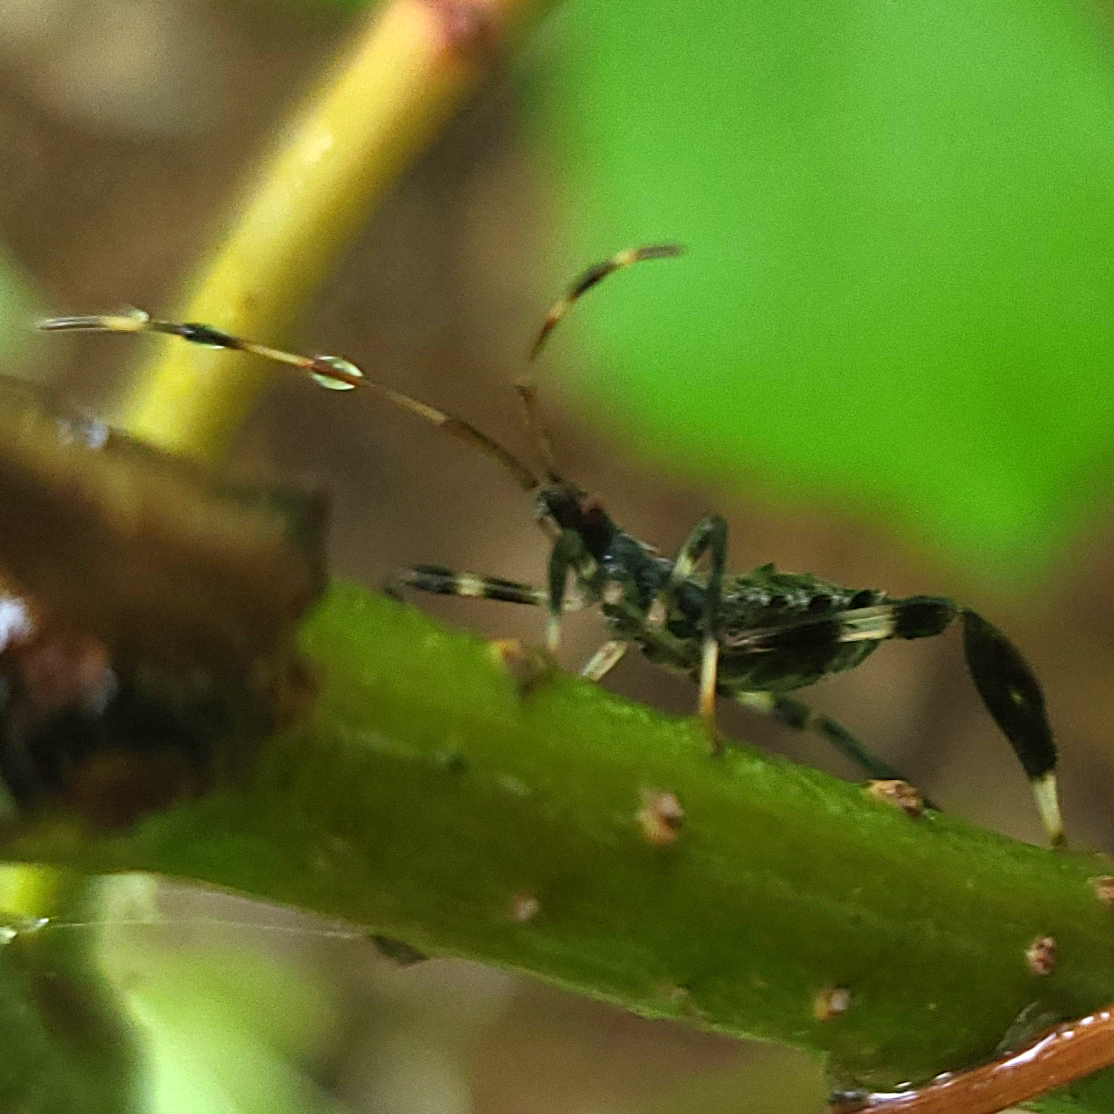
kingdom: Animalia
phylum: Arthropoda
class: Insecta
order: Hemiptera
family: Coreidae
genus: Acanthocephala
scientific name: Acanthocephala terminalis
